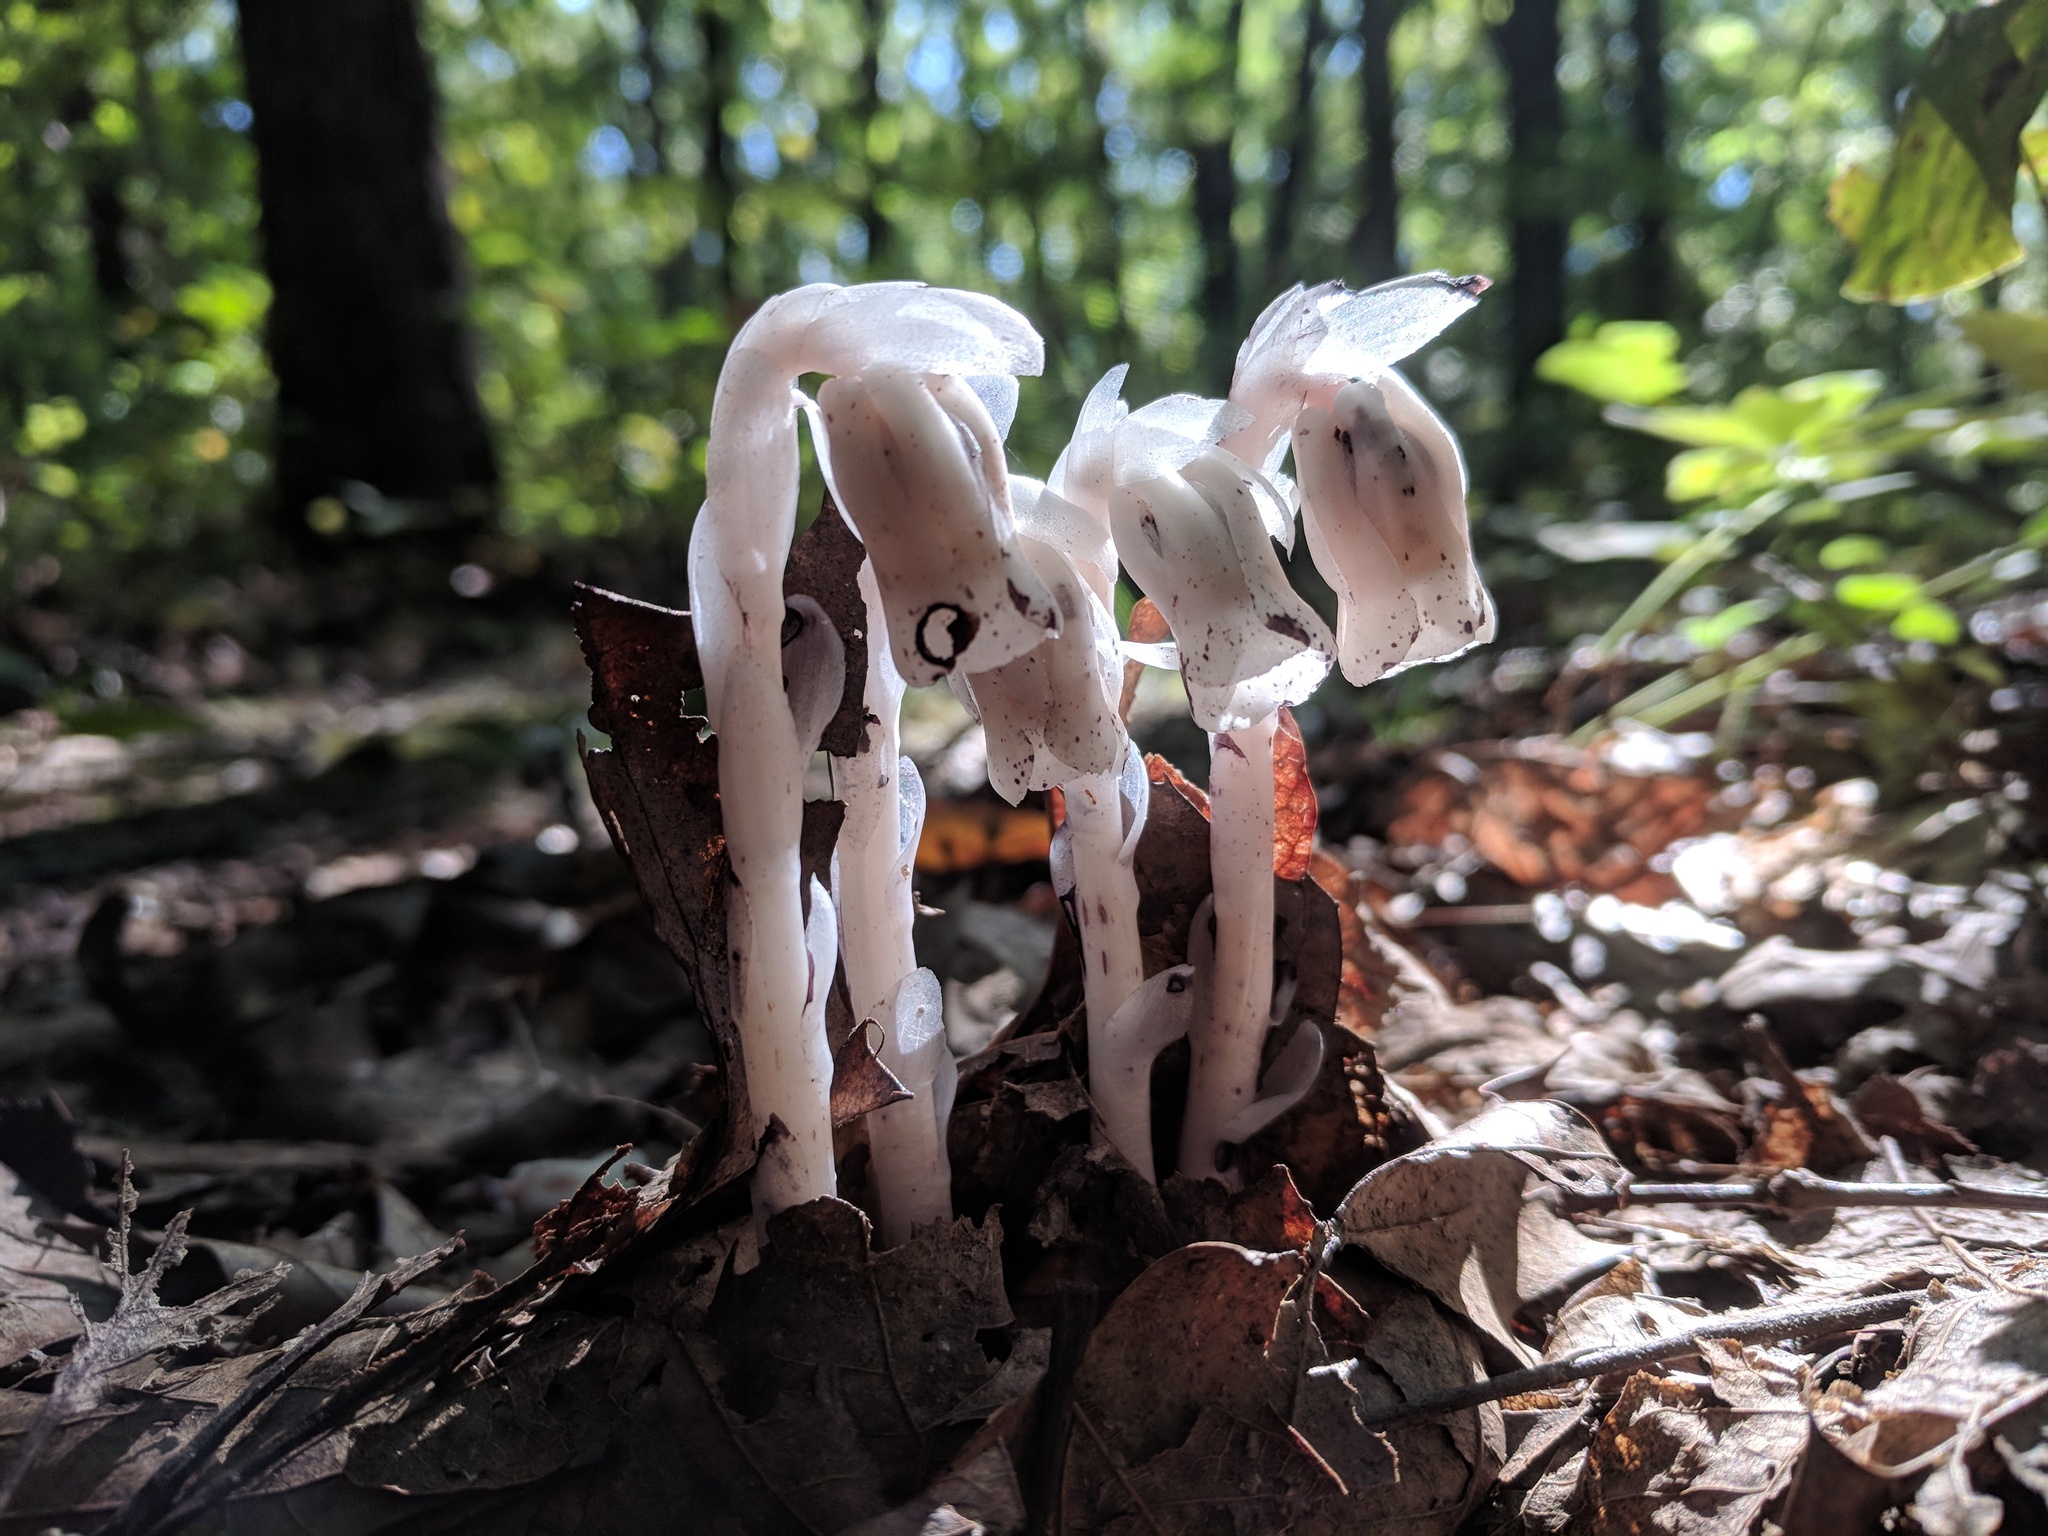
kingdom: Plantae
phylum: Tracheophyta
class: Magnoliopsida
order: Ericales
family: Ericaceae
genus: Monotropa
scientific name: Monotropa uniflora
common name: Convulsion root
